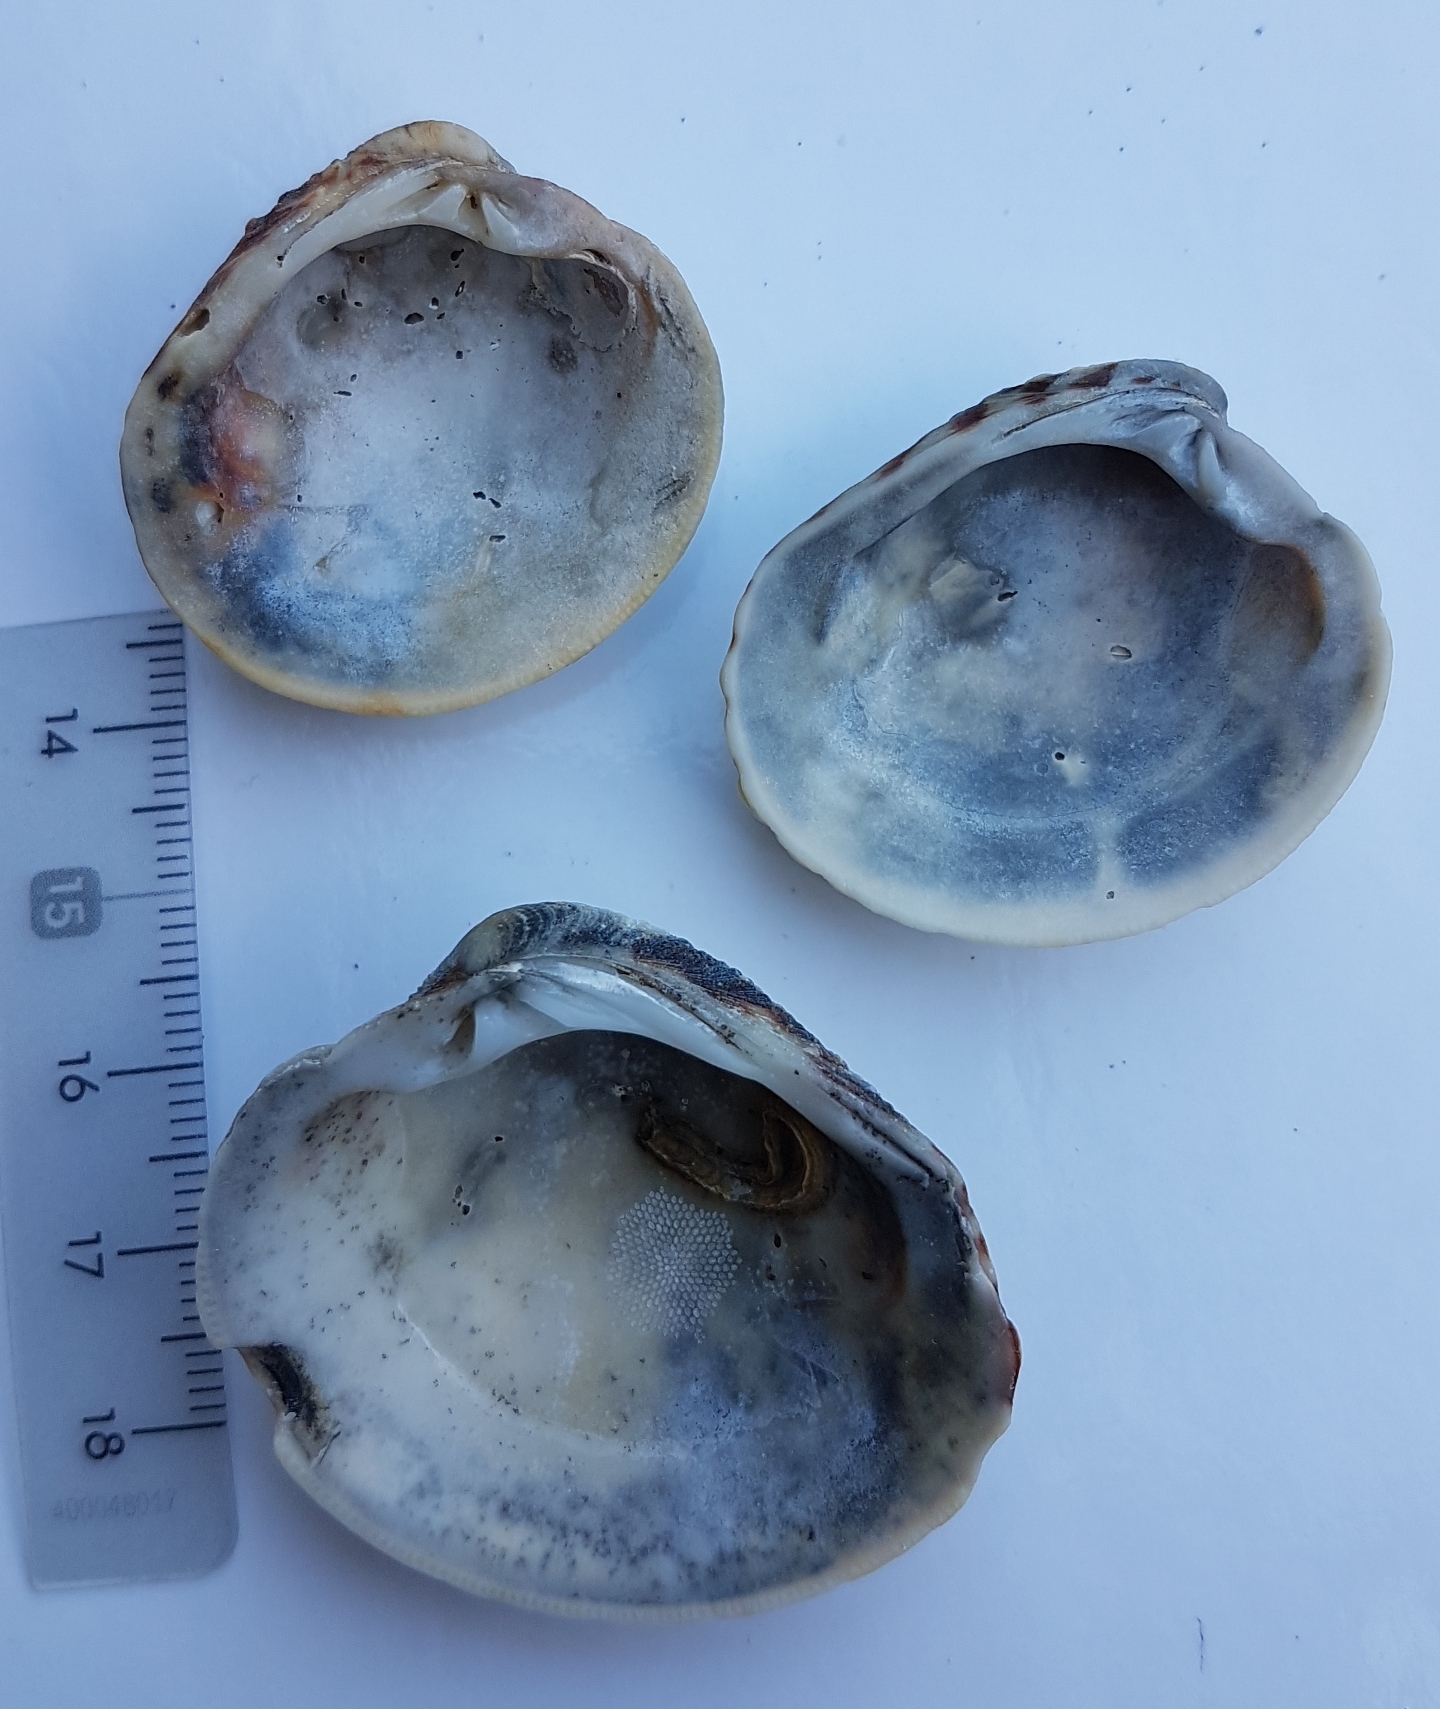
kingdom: Animalia
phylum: Mollusca
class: Bivalvia
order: Venerida
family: Veneridae
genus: Venus
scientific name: Venus verrucosa
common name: Warty venus
